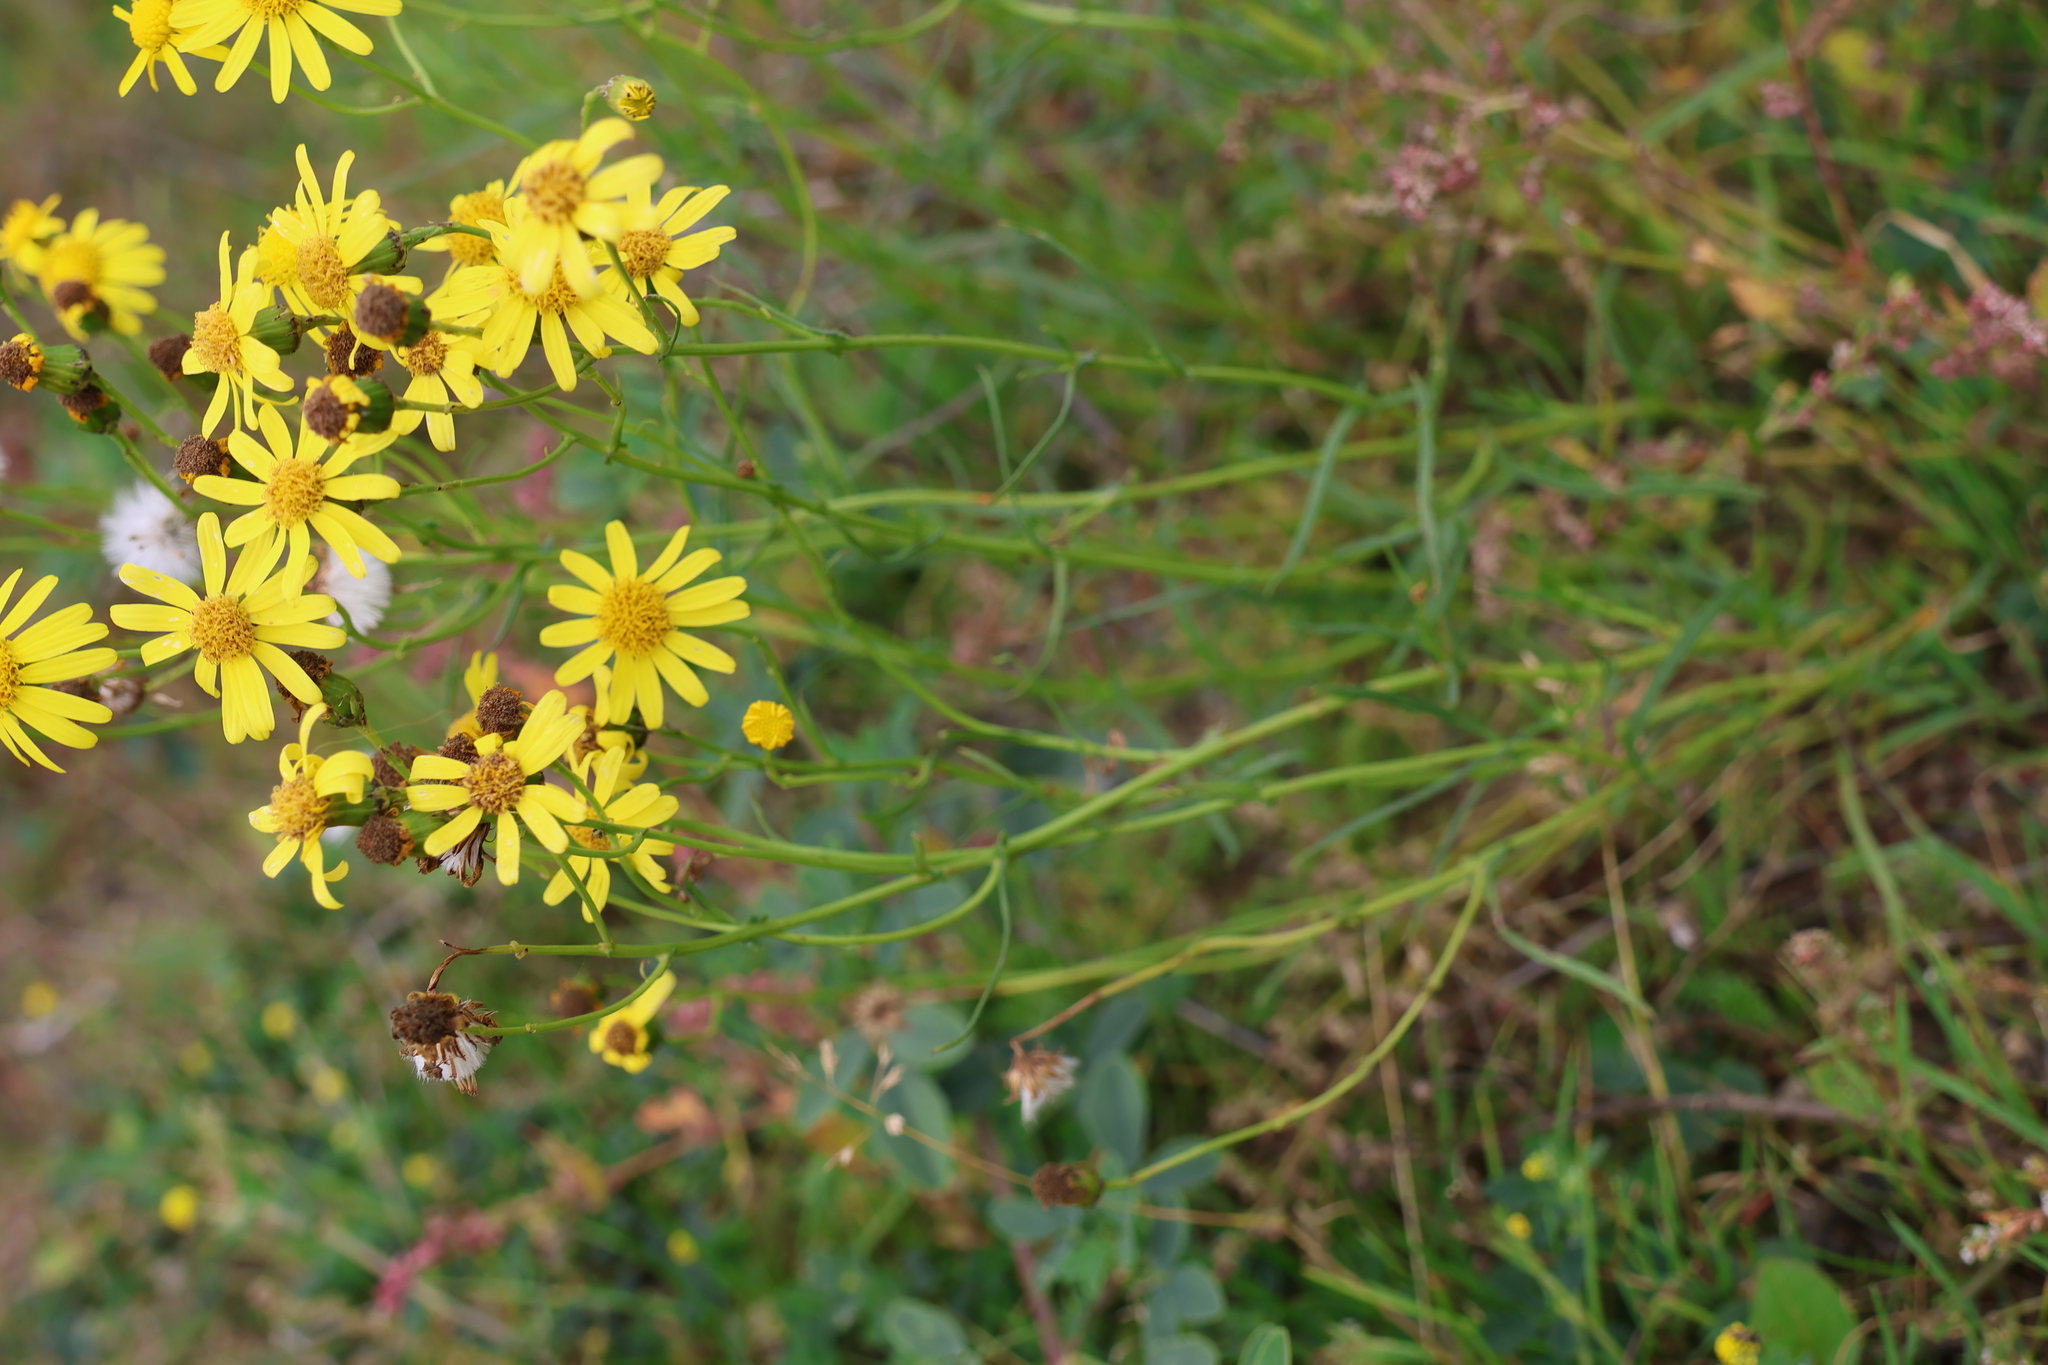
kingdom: Plantae
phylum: Tracheophyta
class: Magnoliopsida
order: Asterales
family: Asteraceae
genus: Senecio
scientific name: Senecio inaequidens
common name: Narrow-leaved ragwort
